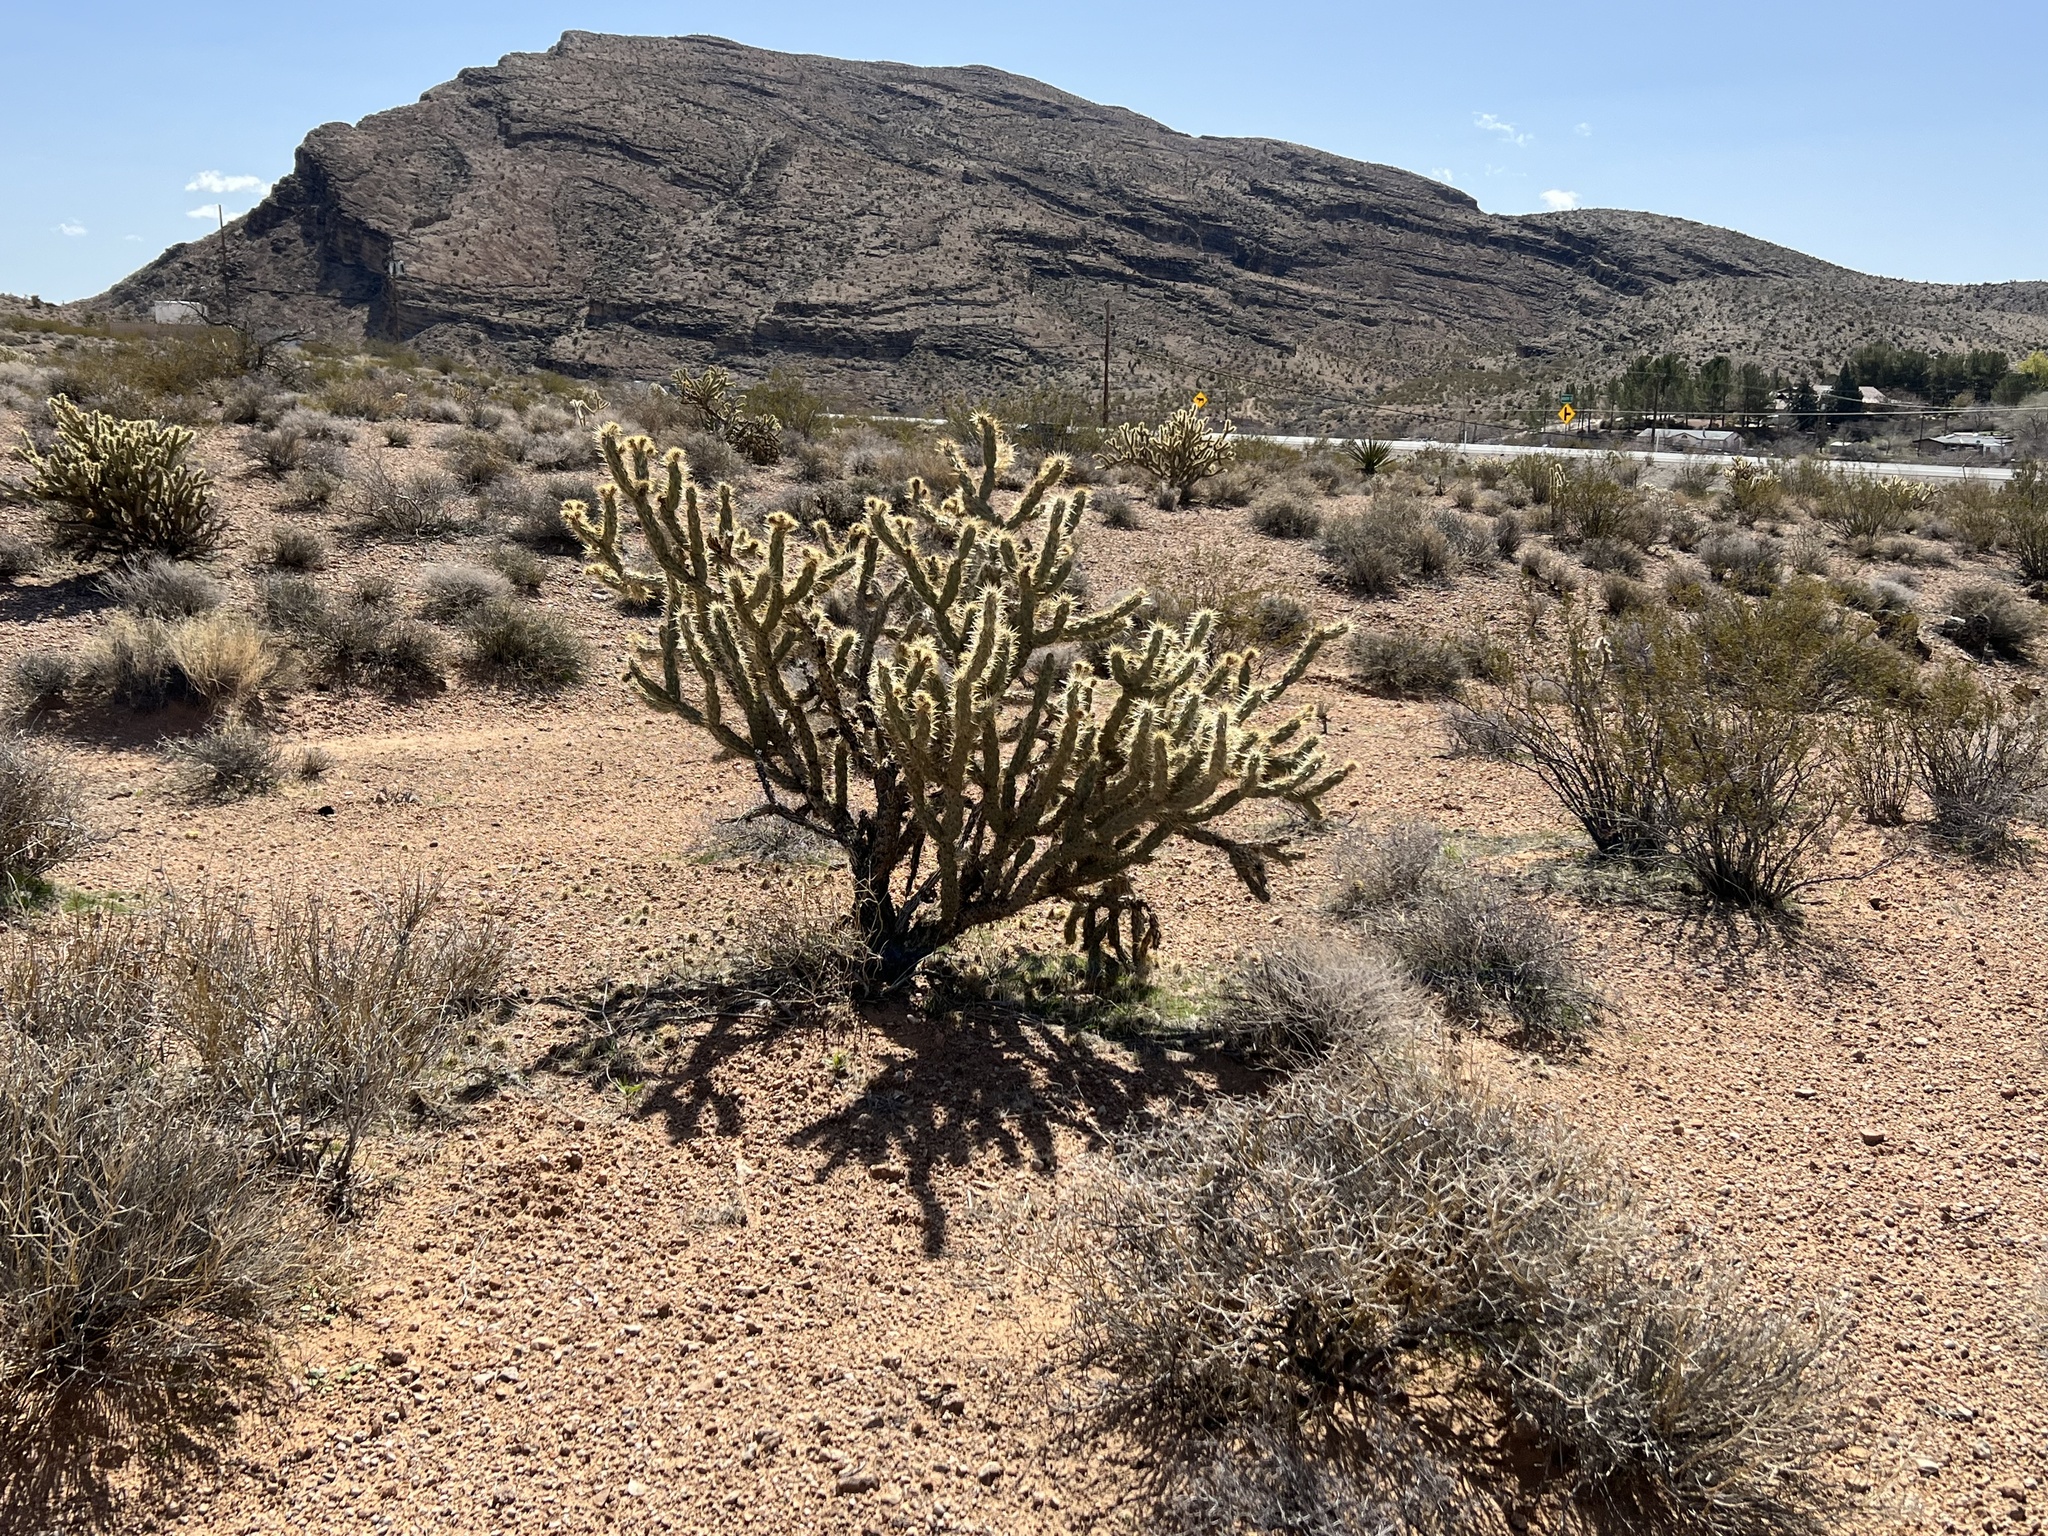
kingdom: Plantae
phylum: Tracheophyta
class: Magnoliopsida
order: Caryophyllales
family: Cactaceae
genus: Cylindropuntia
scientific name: Cylindropuntia acanthocarpa
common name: Buckhorn cholla
